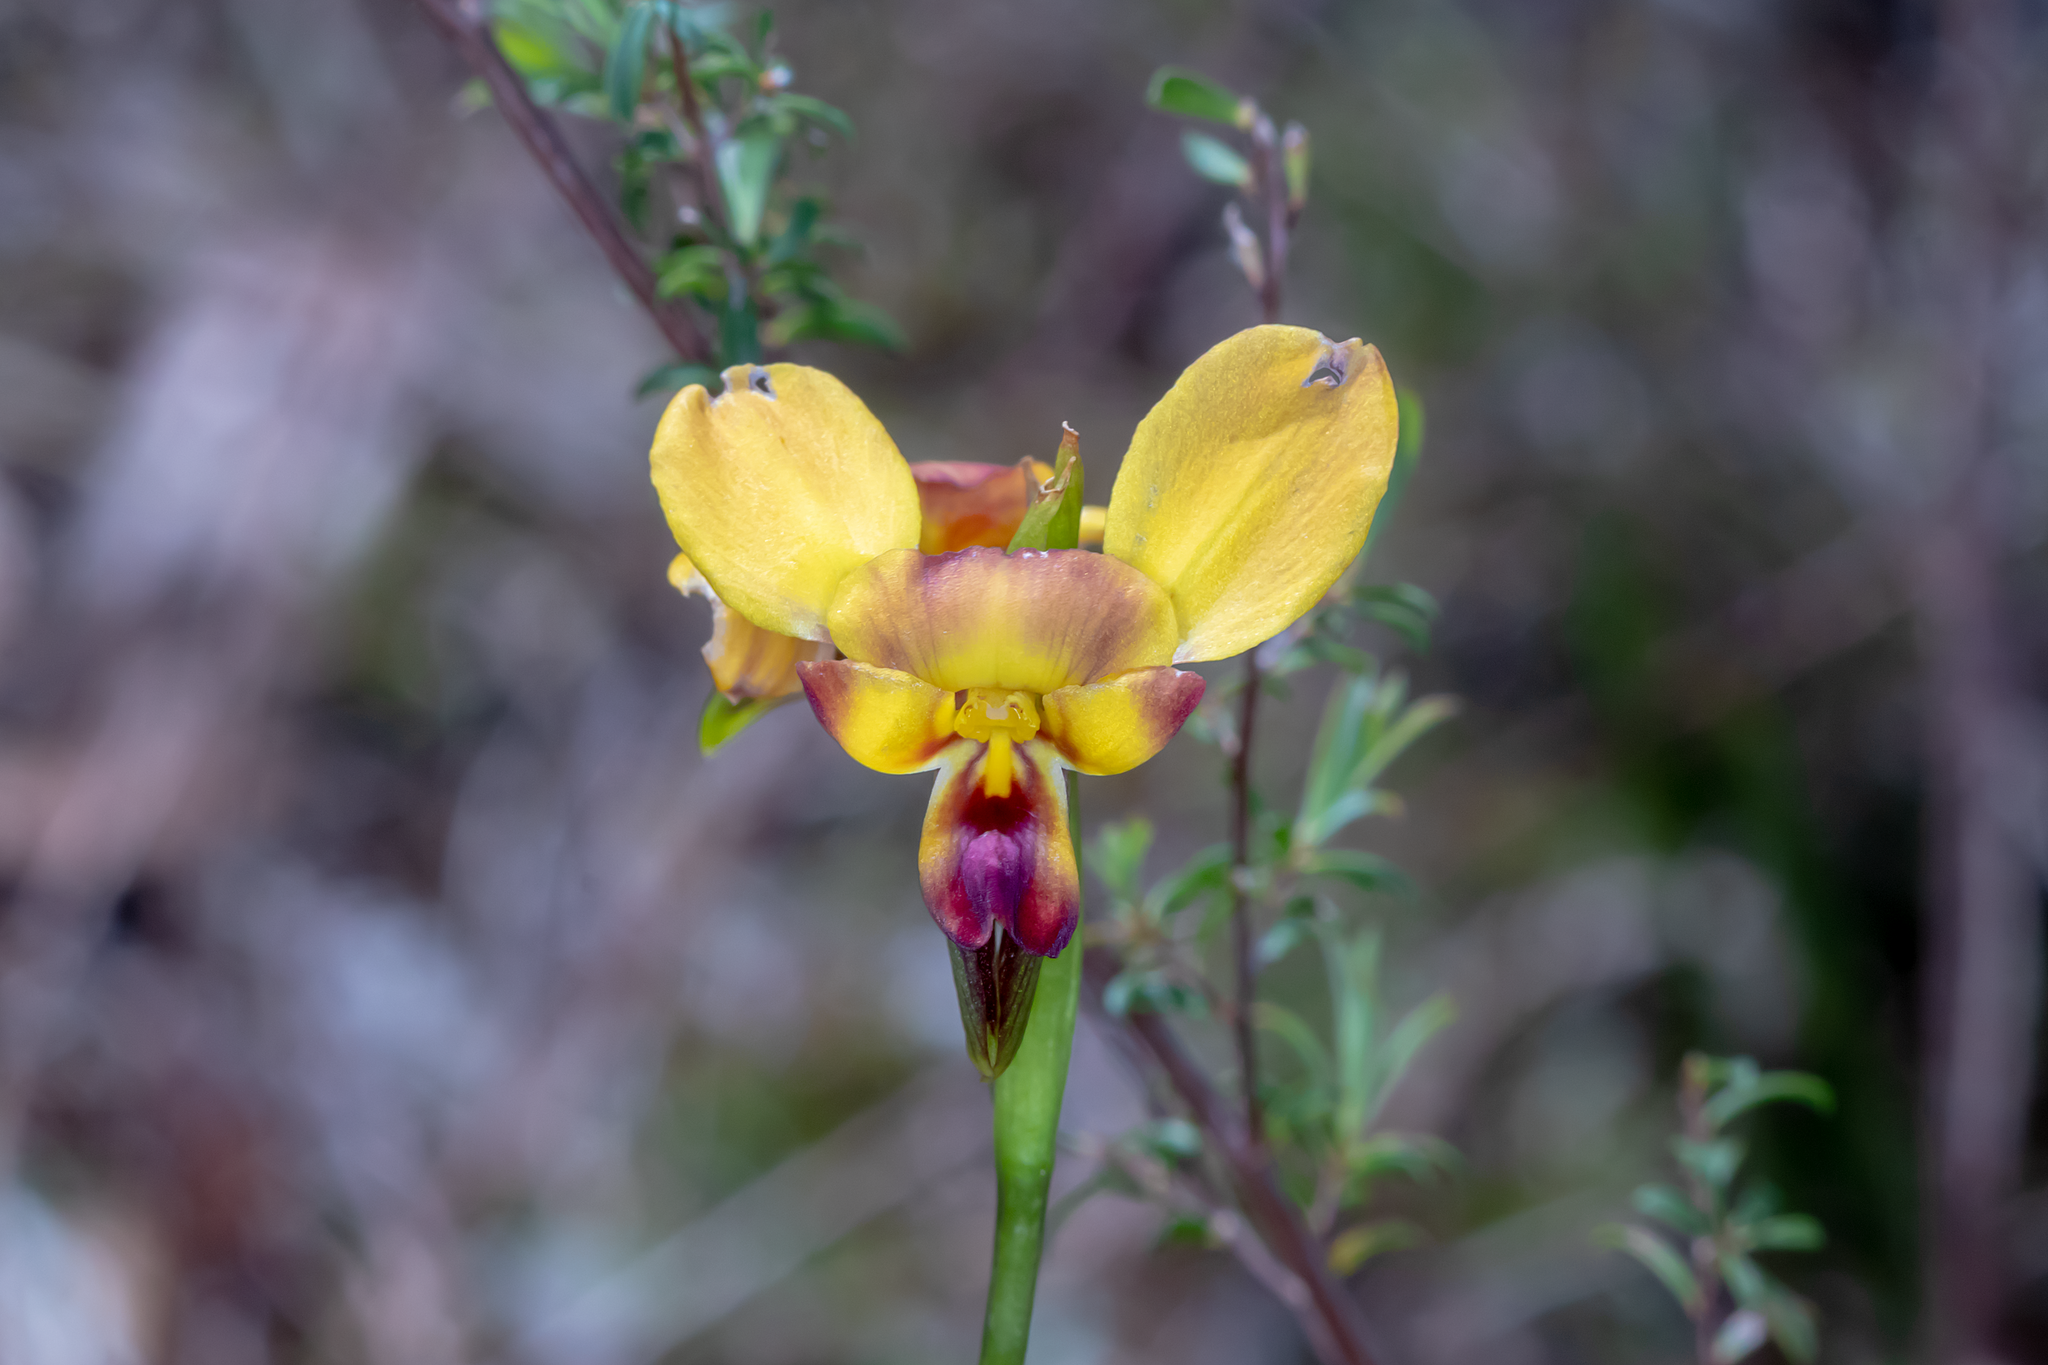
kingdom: Plantae
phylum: Tracheophyta
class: Liliopsida
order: Asparagales
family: Orchidaceae
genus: Diuris
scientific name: Diuris orientis
